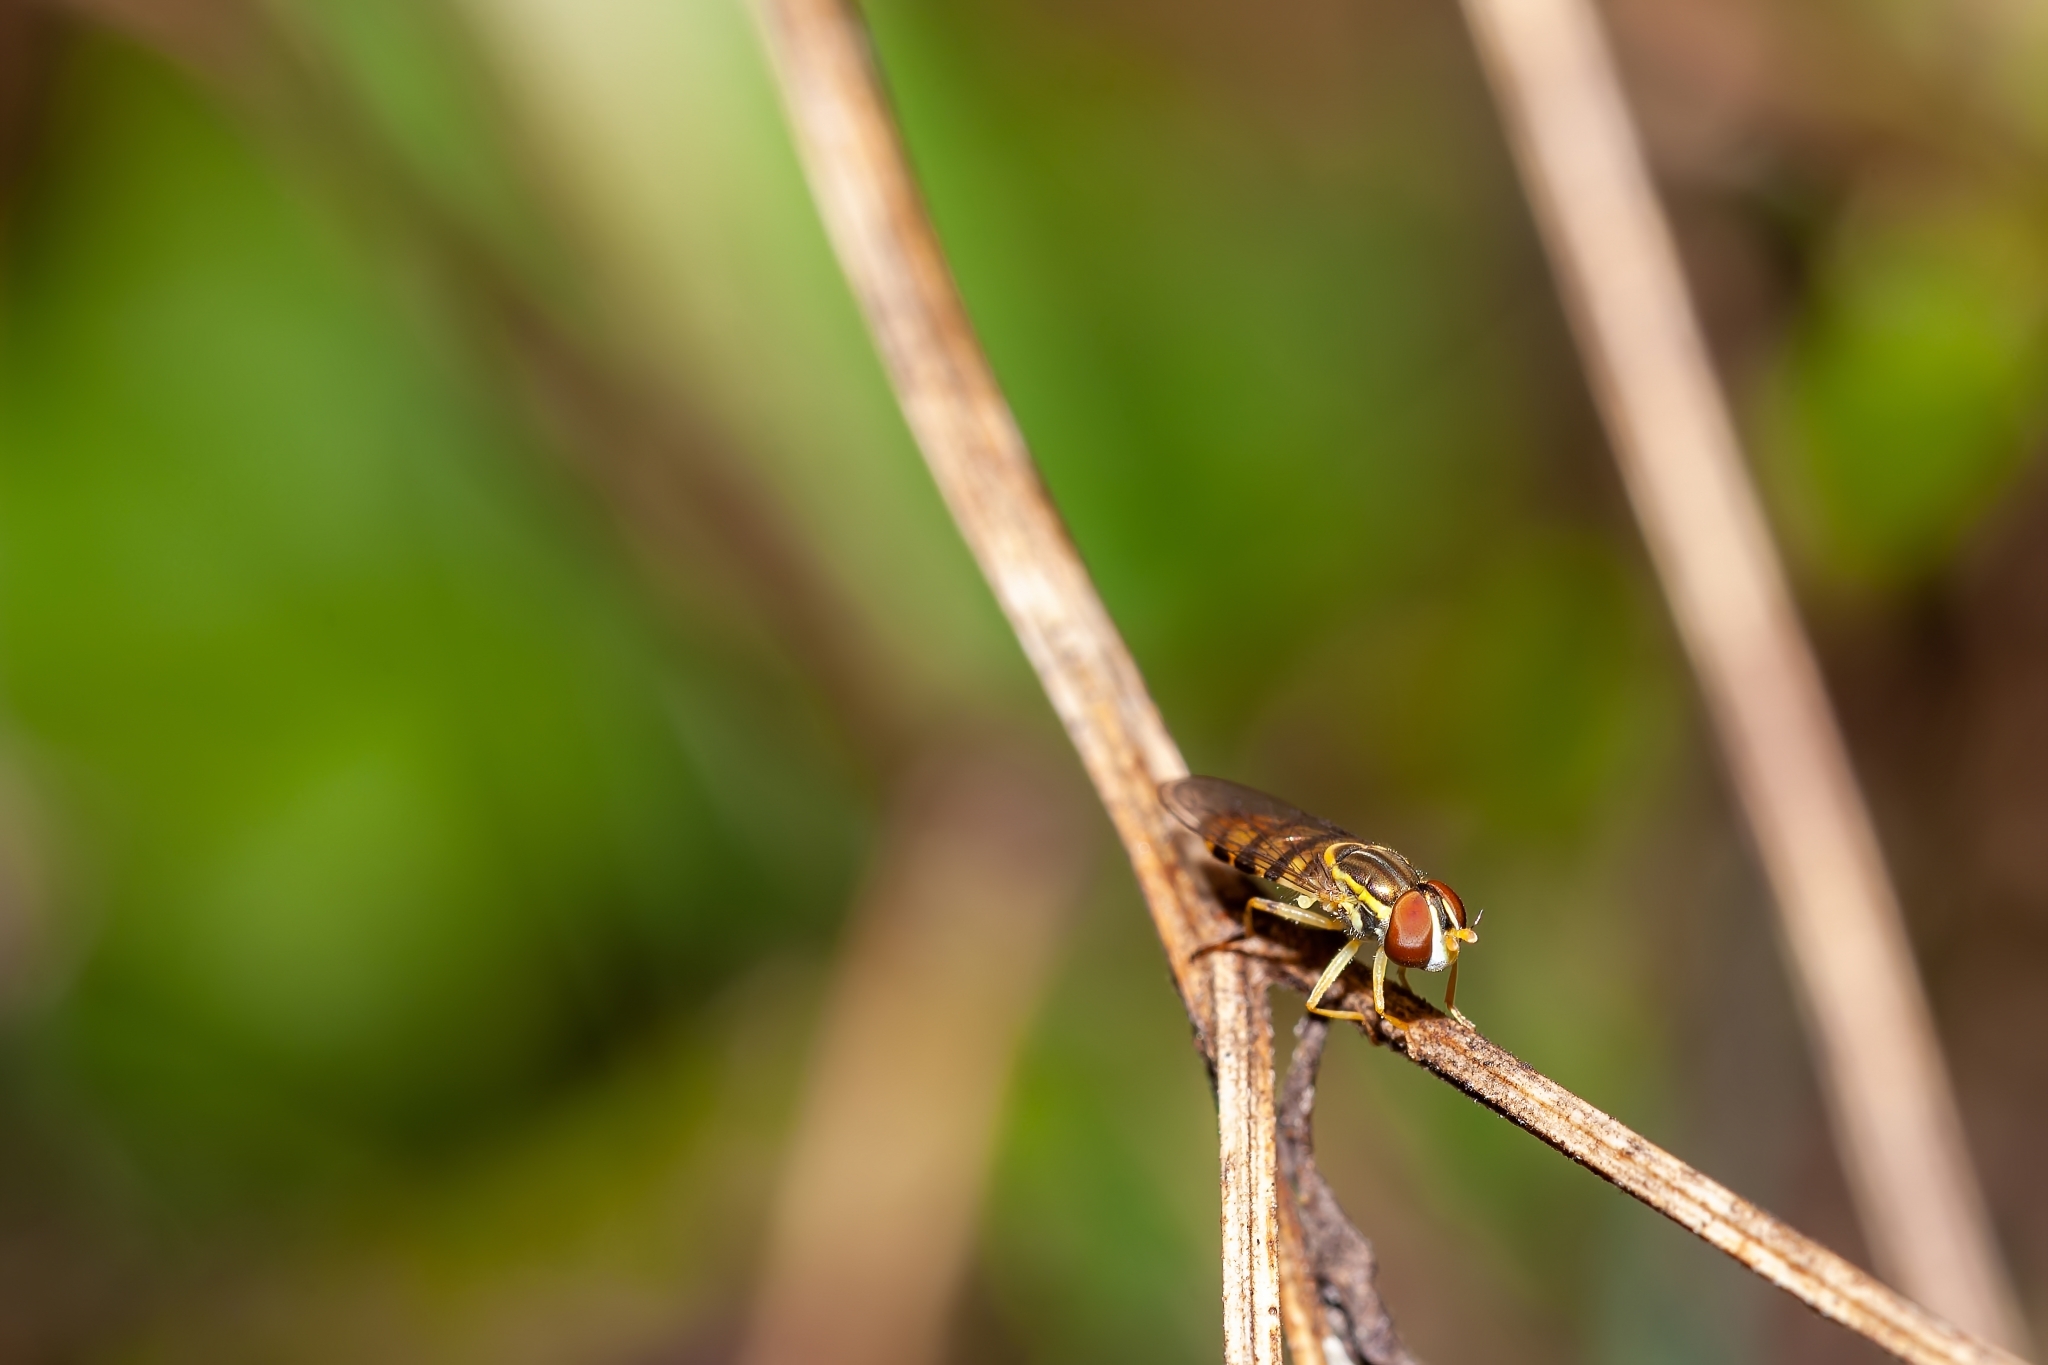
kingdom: Animalia
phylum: Arthropoda
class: Insecta
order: Diptera
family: Syrphidae
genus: Toxomerus
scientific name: Toxomerus floralis
